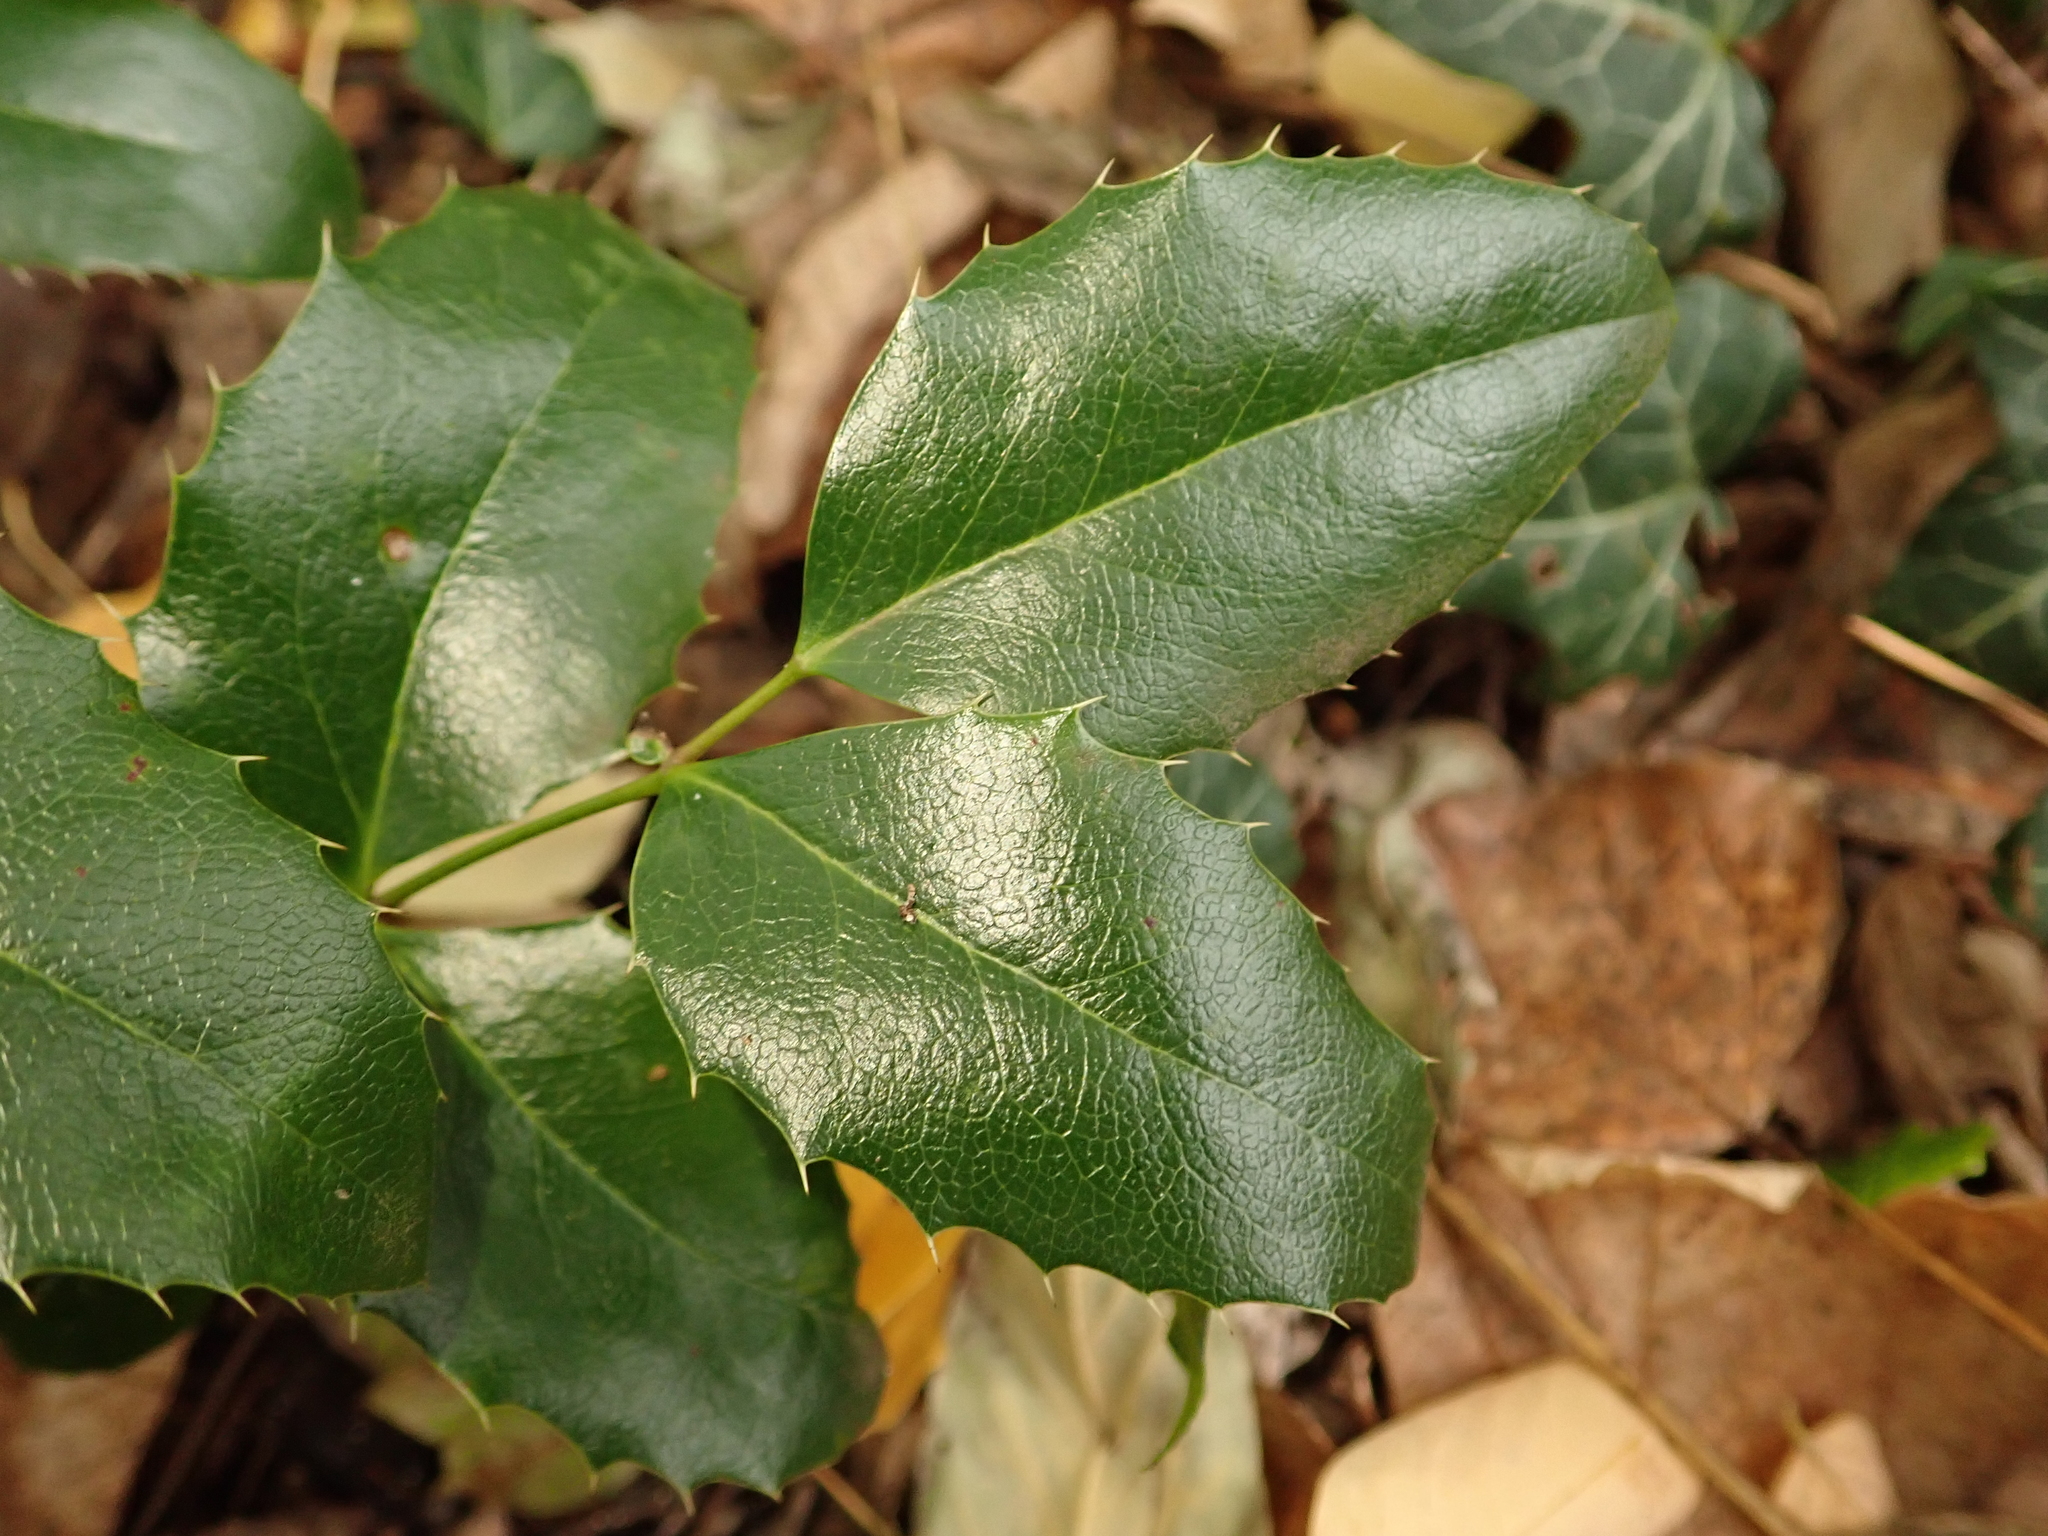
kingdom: Plantae
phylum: Tracheophyta
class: Magnoliopsida
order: Ranunculales
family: Berberidaceae
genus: Mahonia
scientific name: Mahonia aquifolium
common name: Oregon-grape
